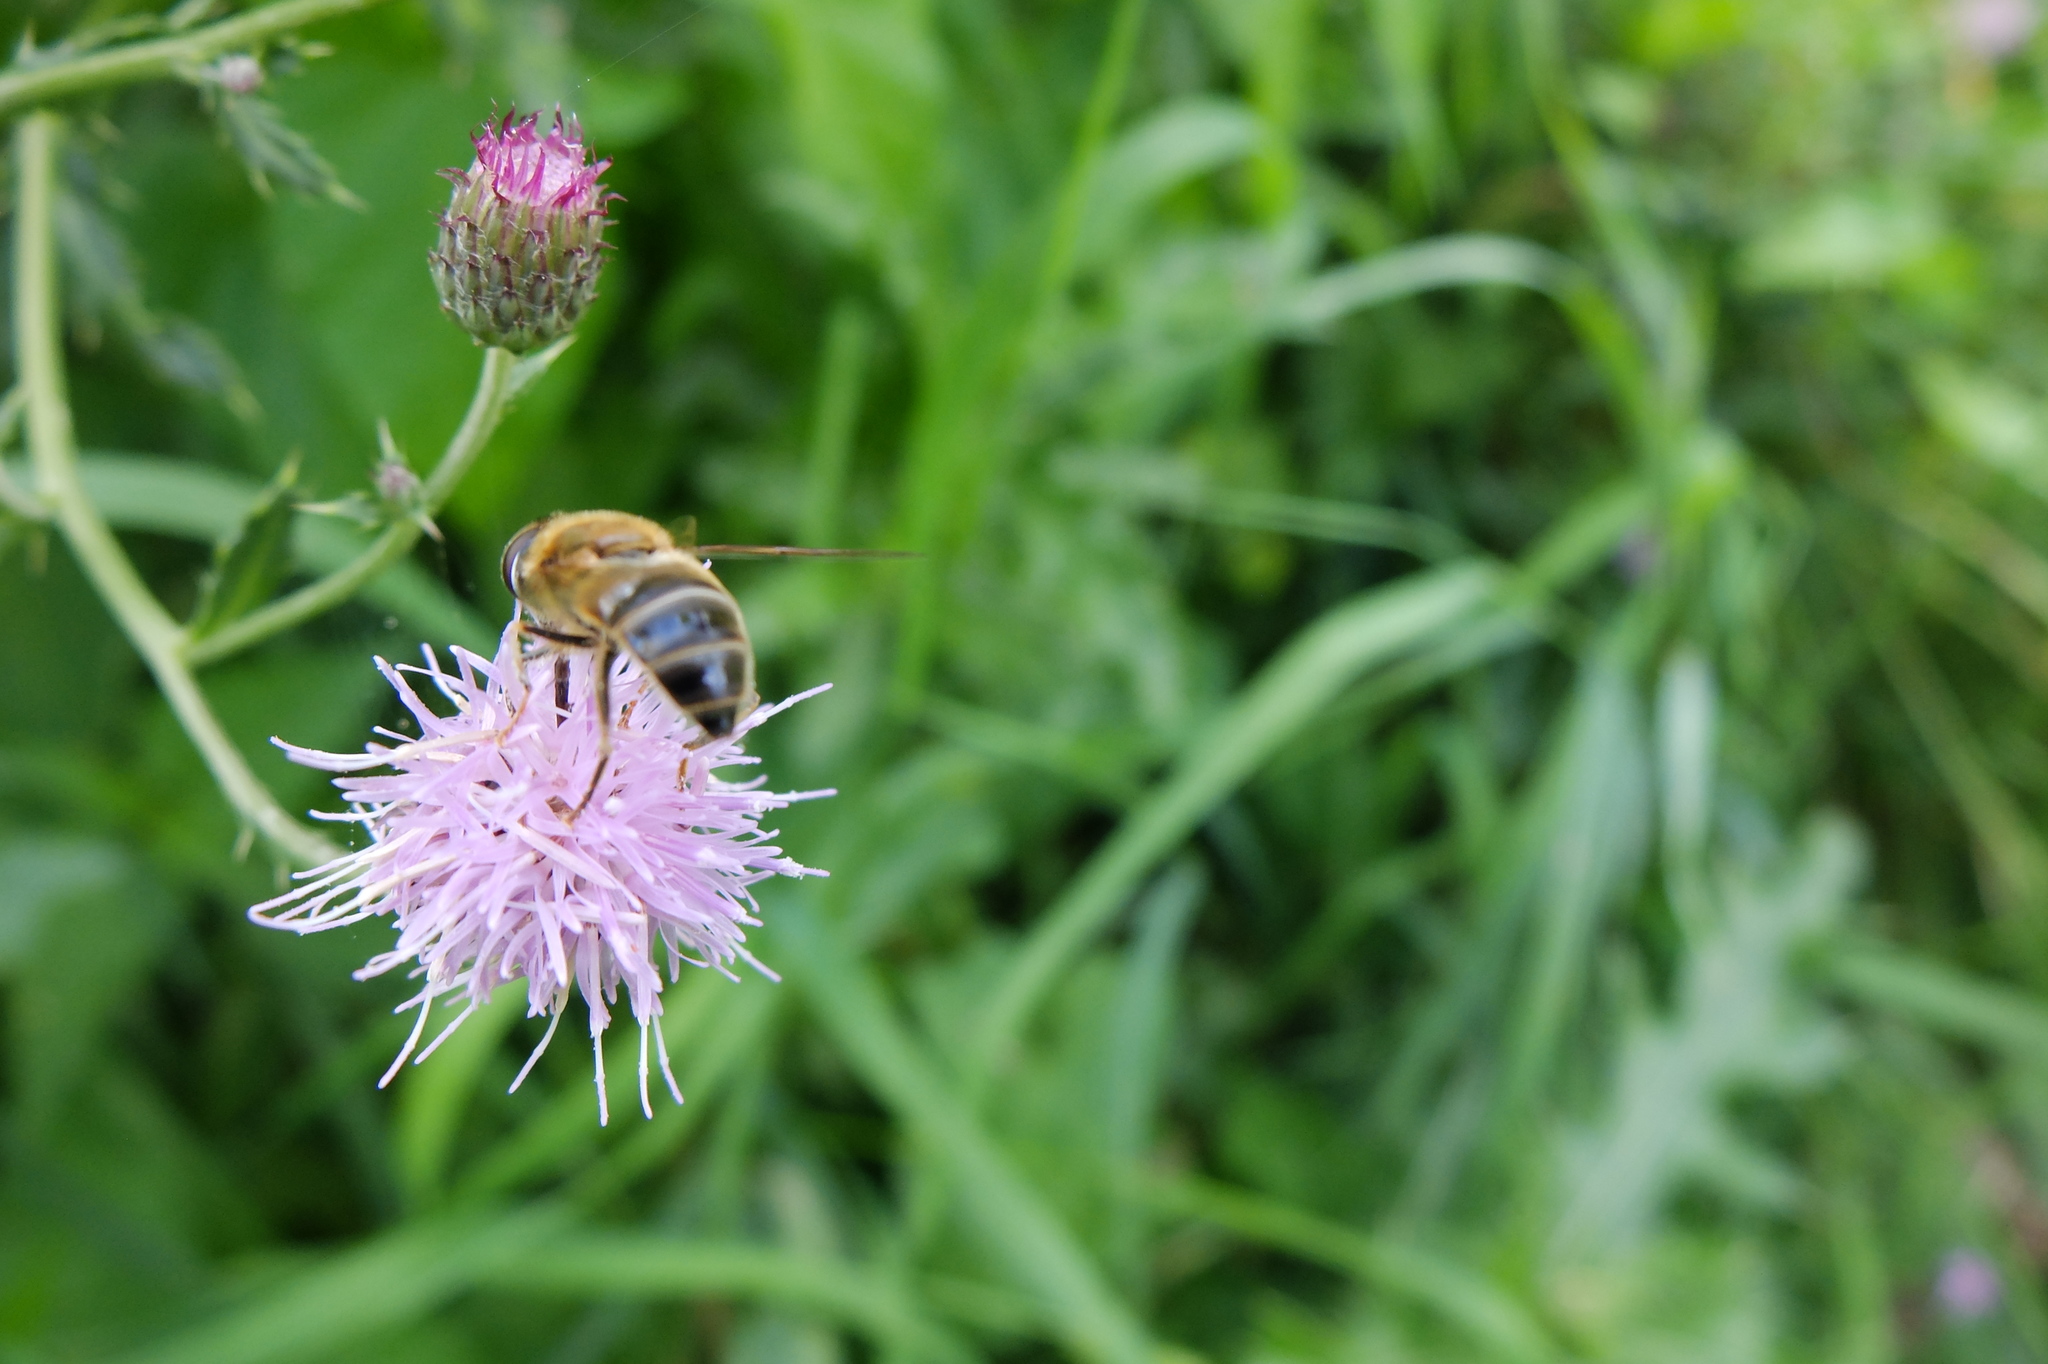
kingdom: Animalia
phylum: Arthropoda
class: Insecta
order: Diptera
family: Syrphidae
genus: Eristalis
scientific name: Eristalis pertinax
